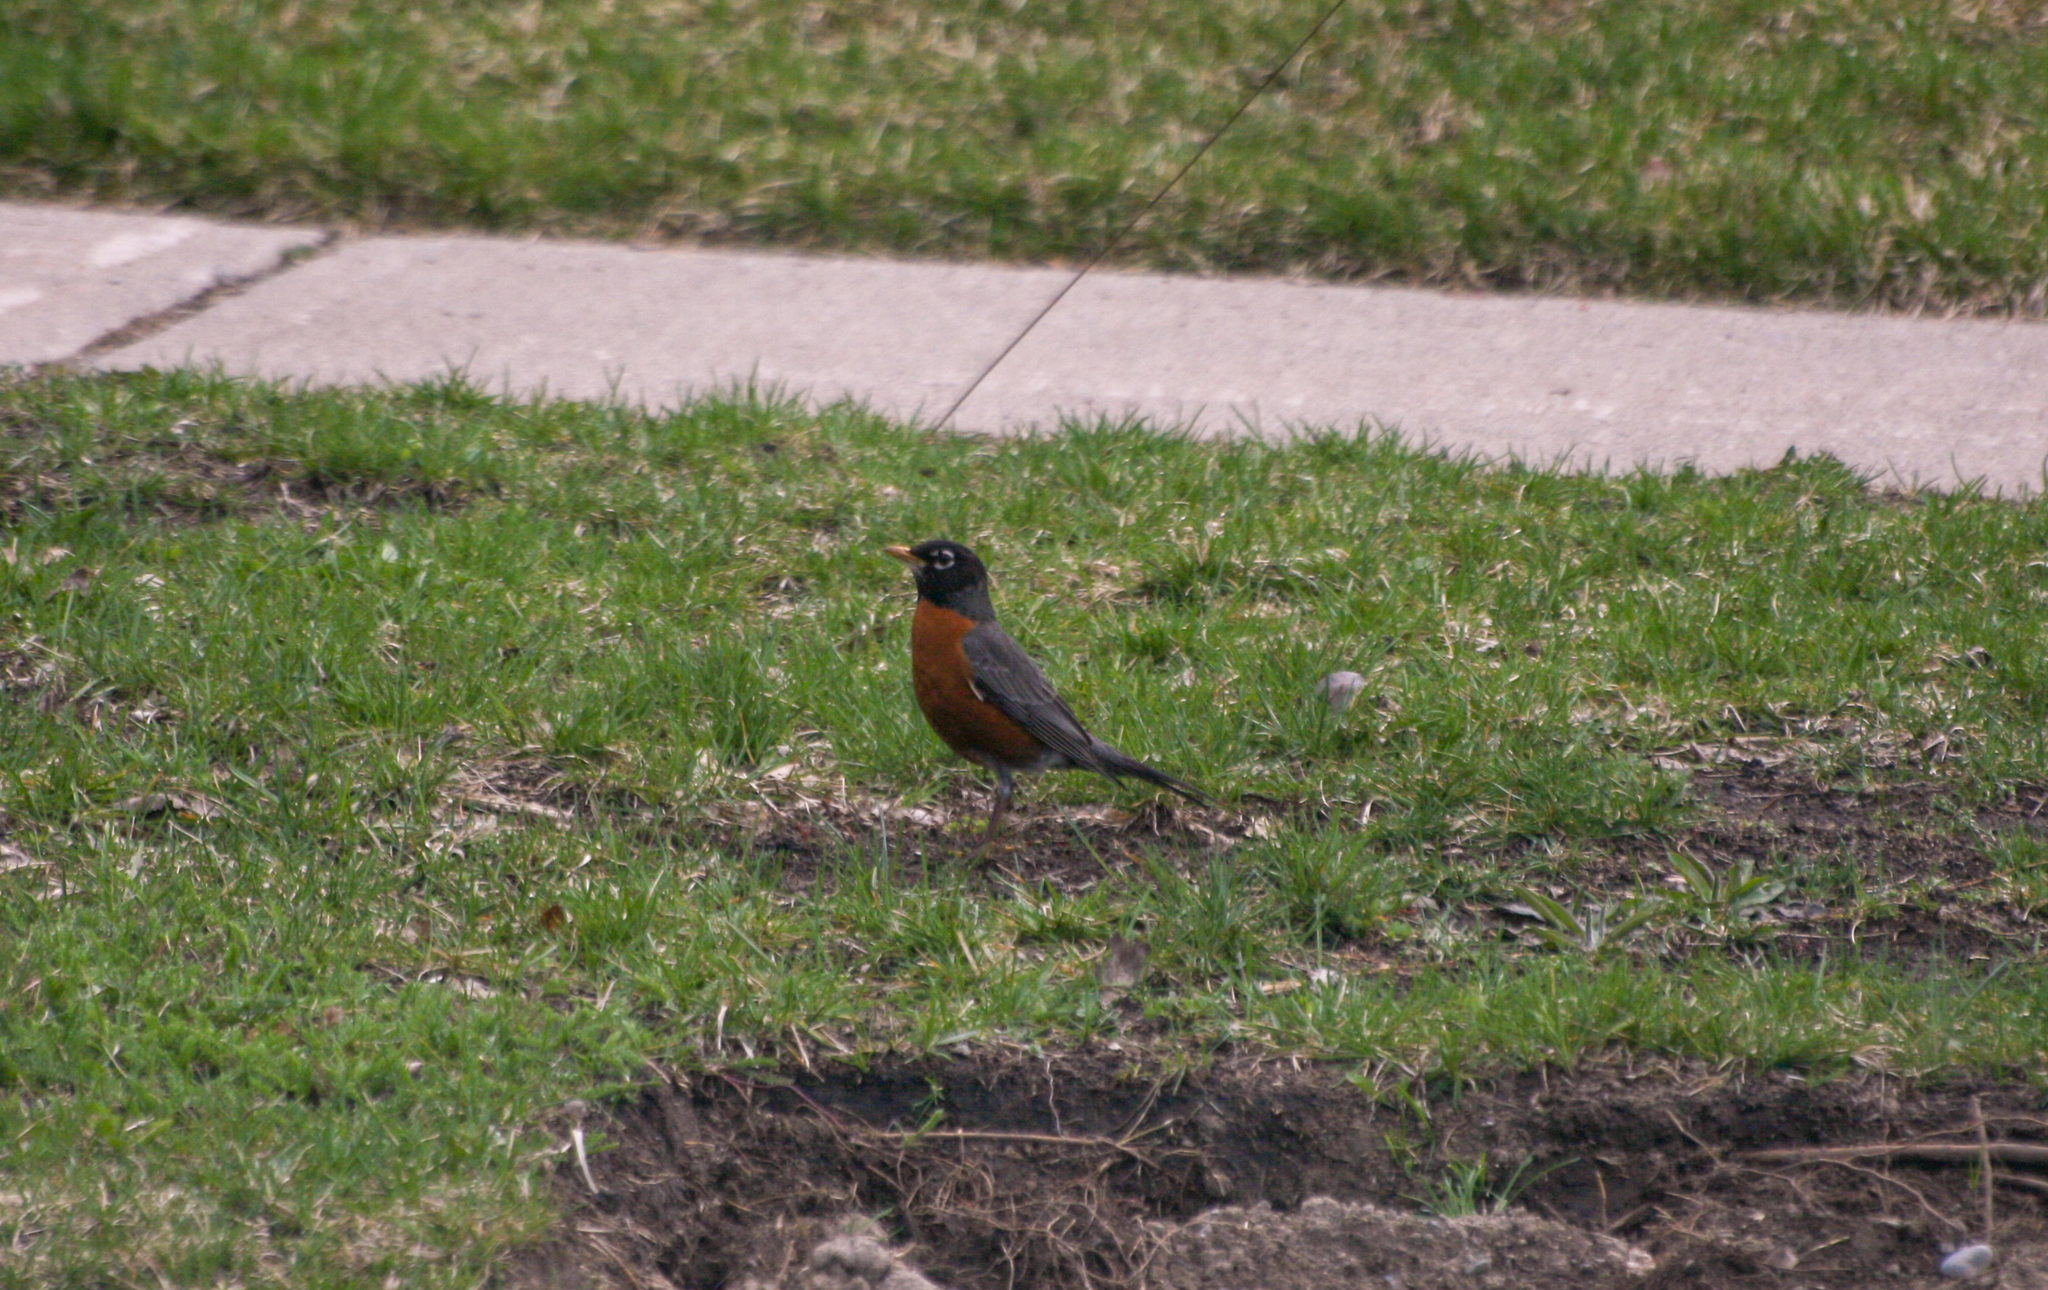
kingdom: Animalia
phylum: Chordata
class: Aves
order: Passeriformes
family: Turdidae
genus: Turdus
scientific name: Turdus migratorius
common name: American robin
